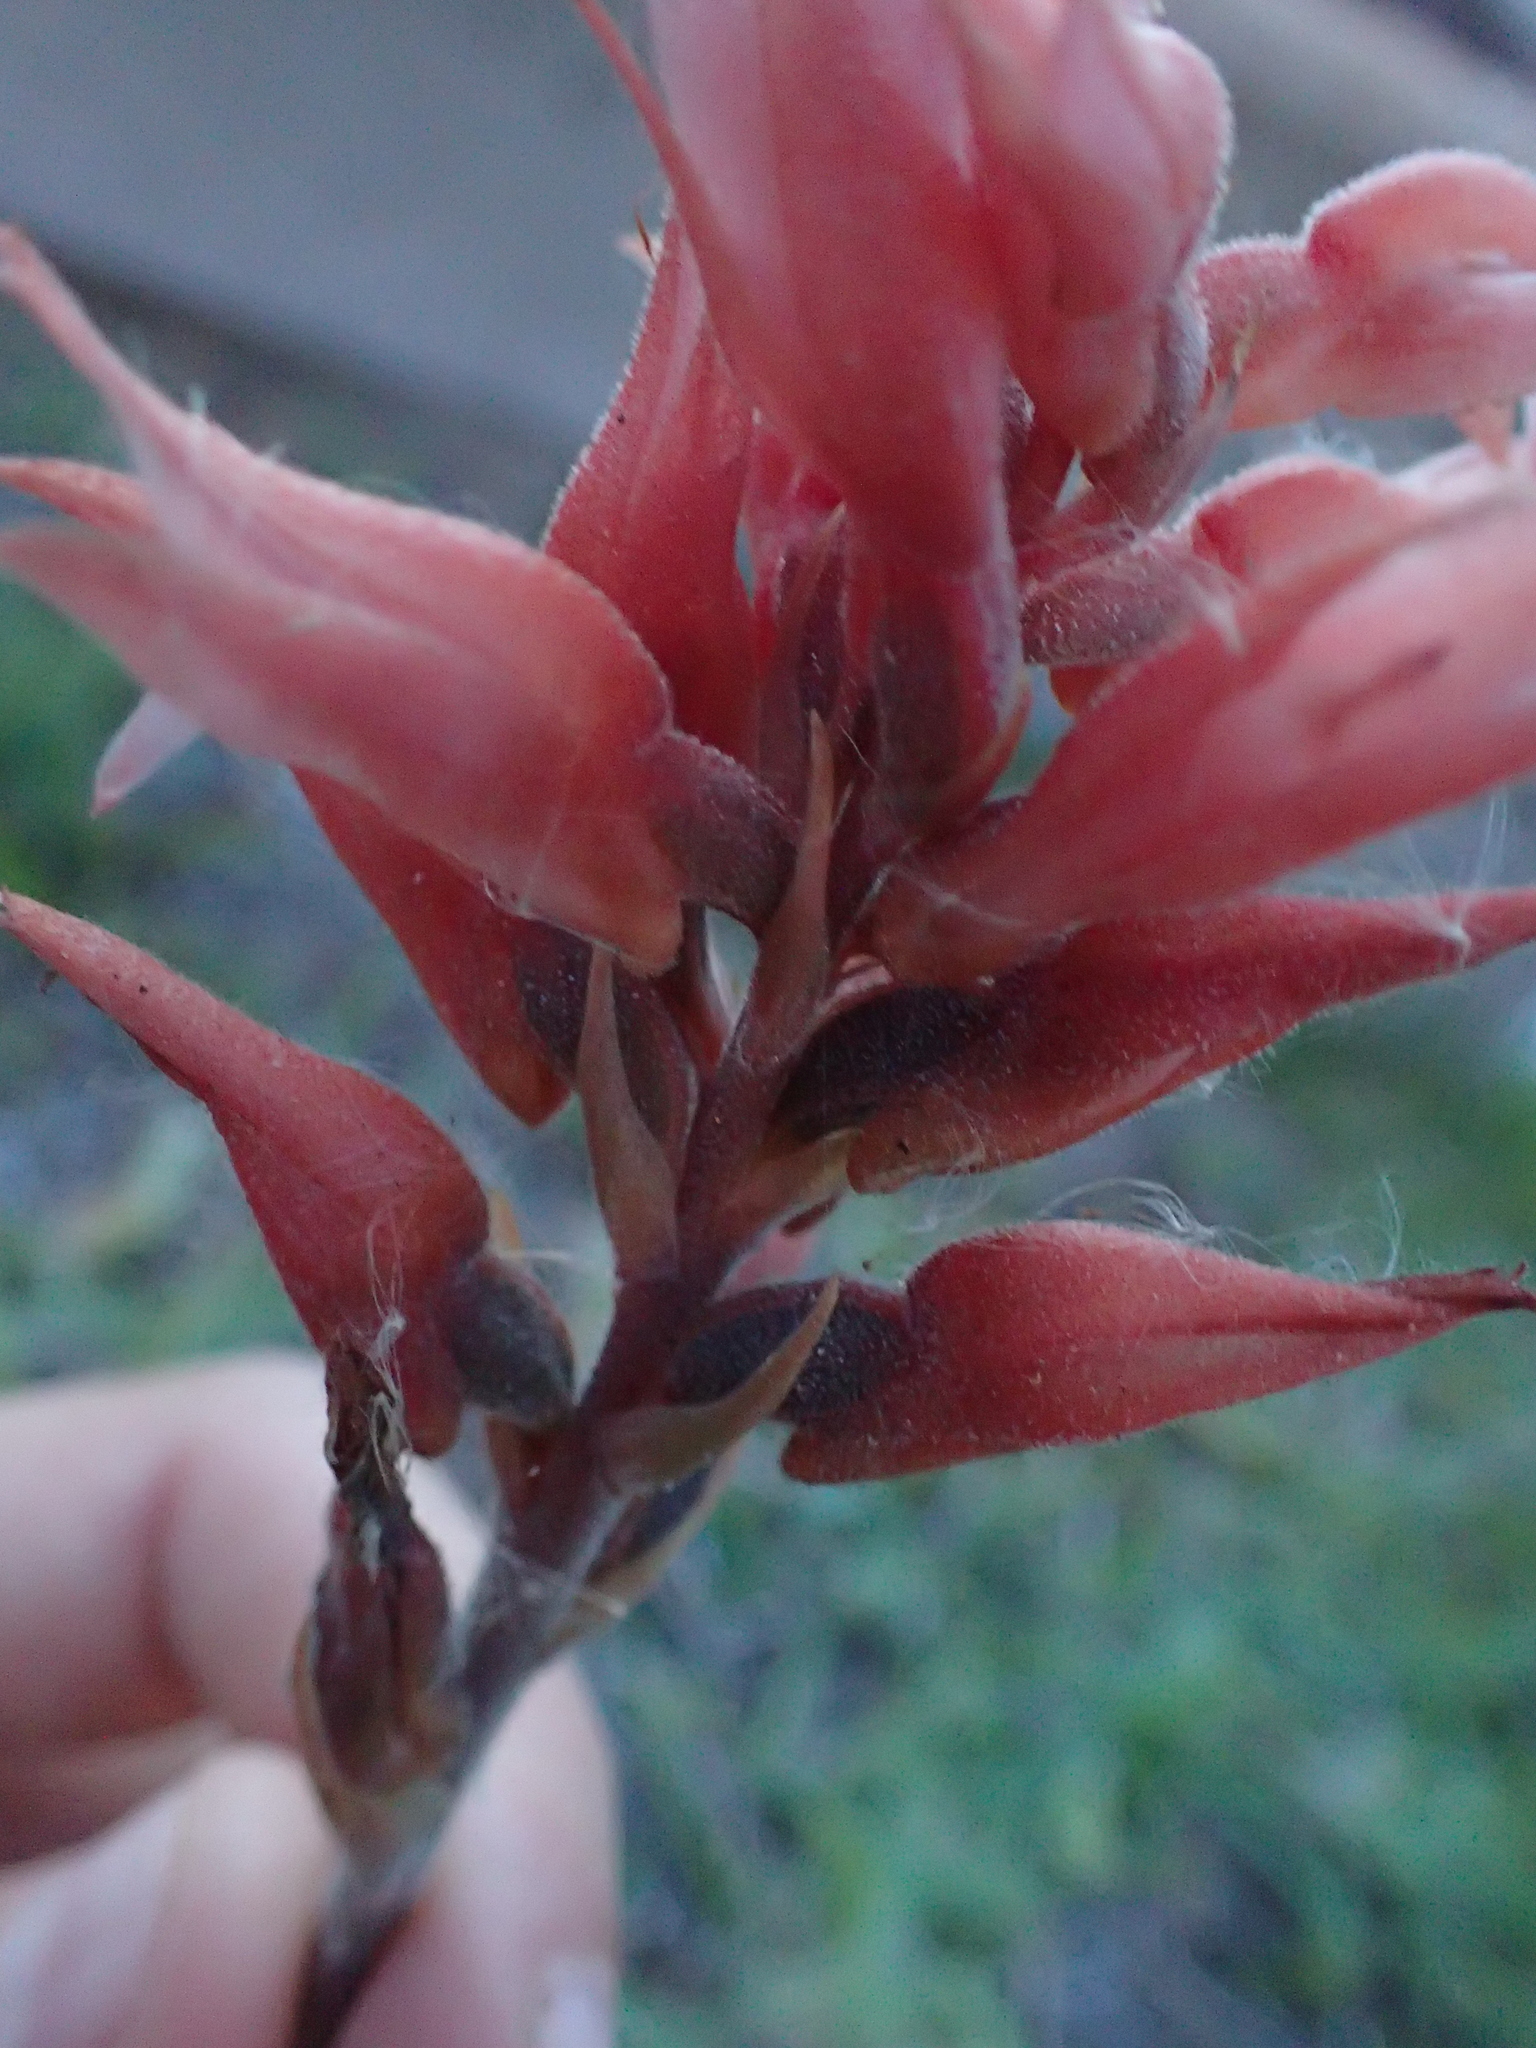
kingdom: Plantae
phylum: Tracheophyta
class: Liliopsida
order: Asparagales
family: Orchidaceae
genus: Sacoila
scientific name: Sacoila lanceolata
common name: Leafless beaked ladiestresses
